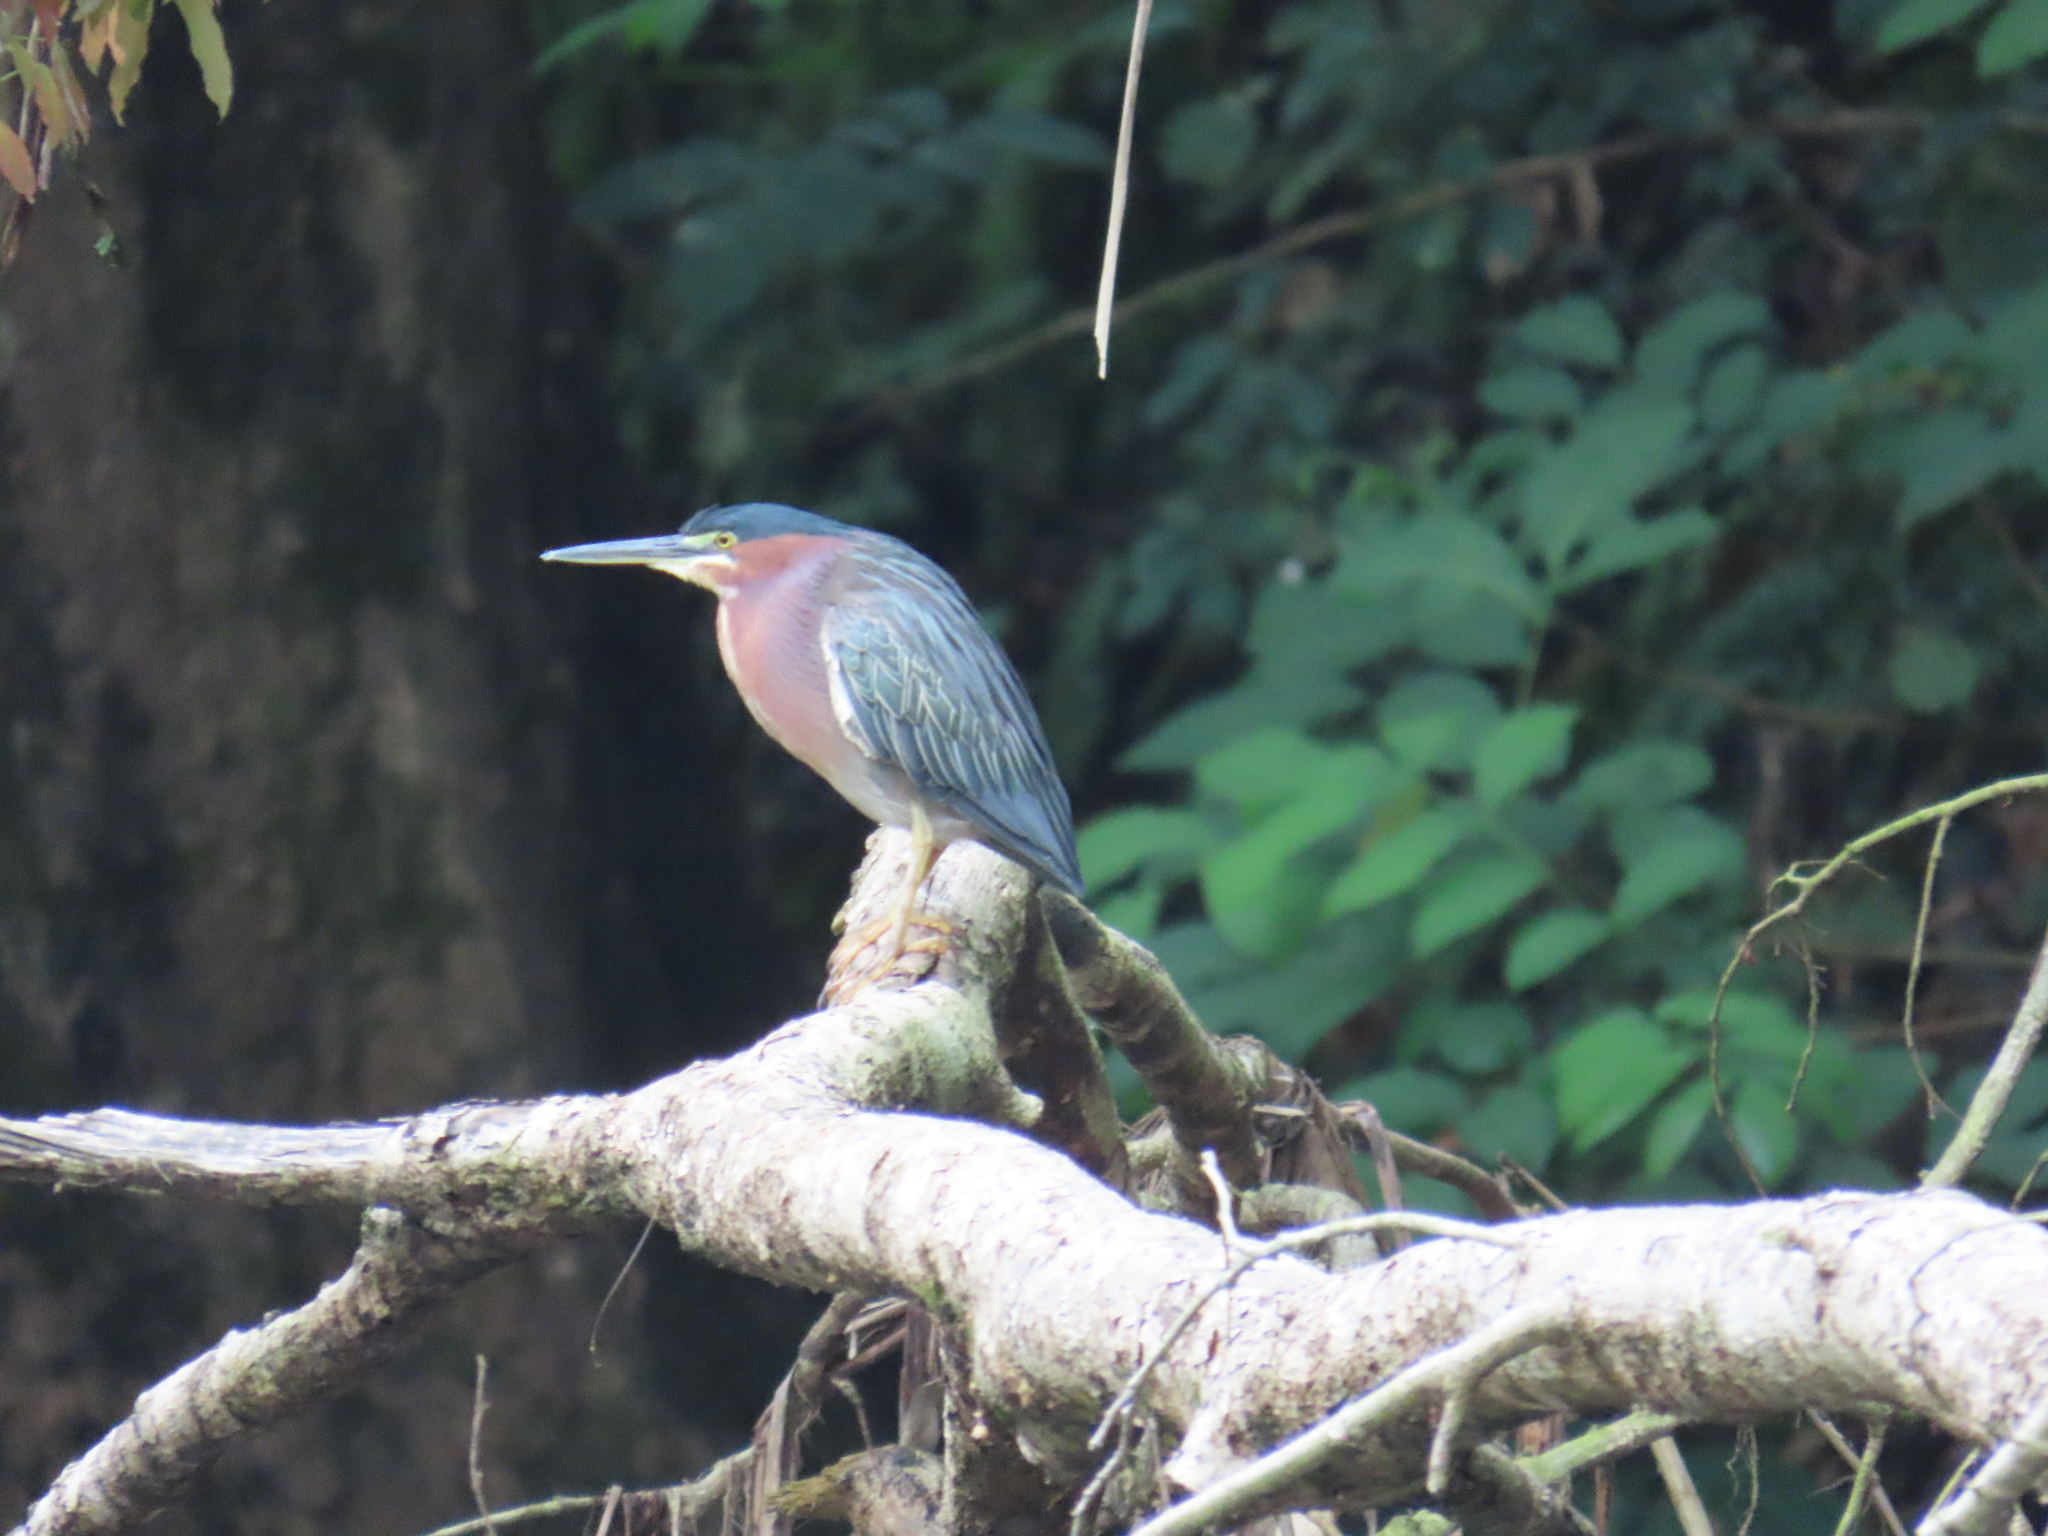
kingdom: Animalia
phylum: Chordata
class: Aves
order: Pelecaniformes
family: Ardeidae
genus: Butorides
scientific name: Butorides virescens
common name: Green heron
